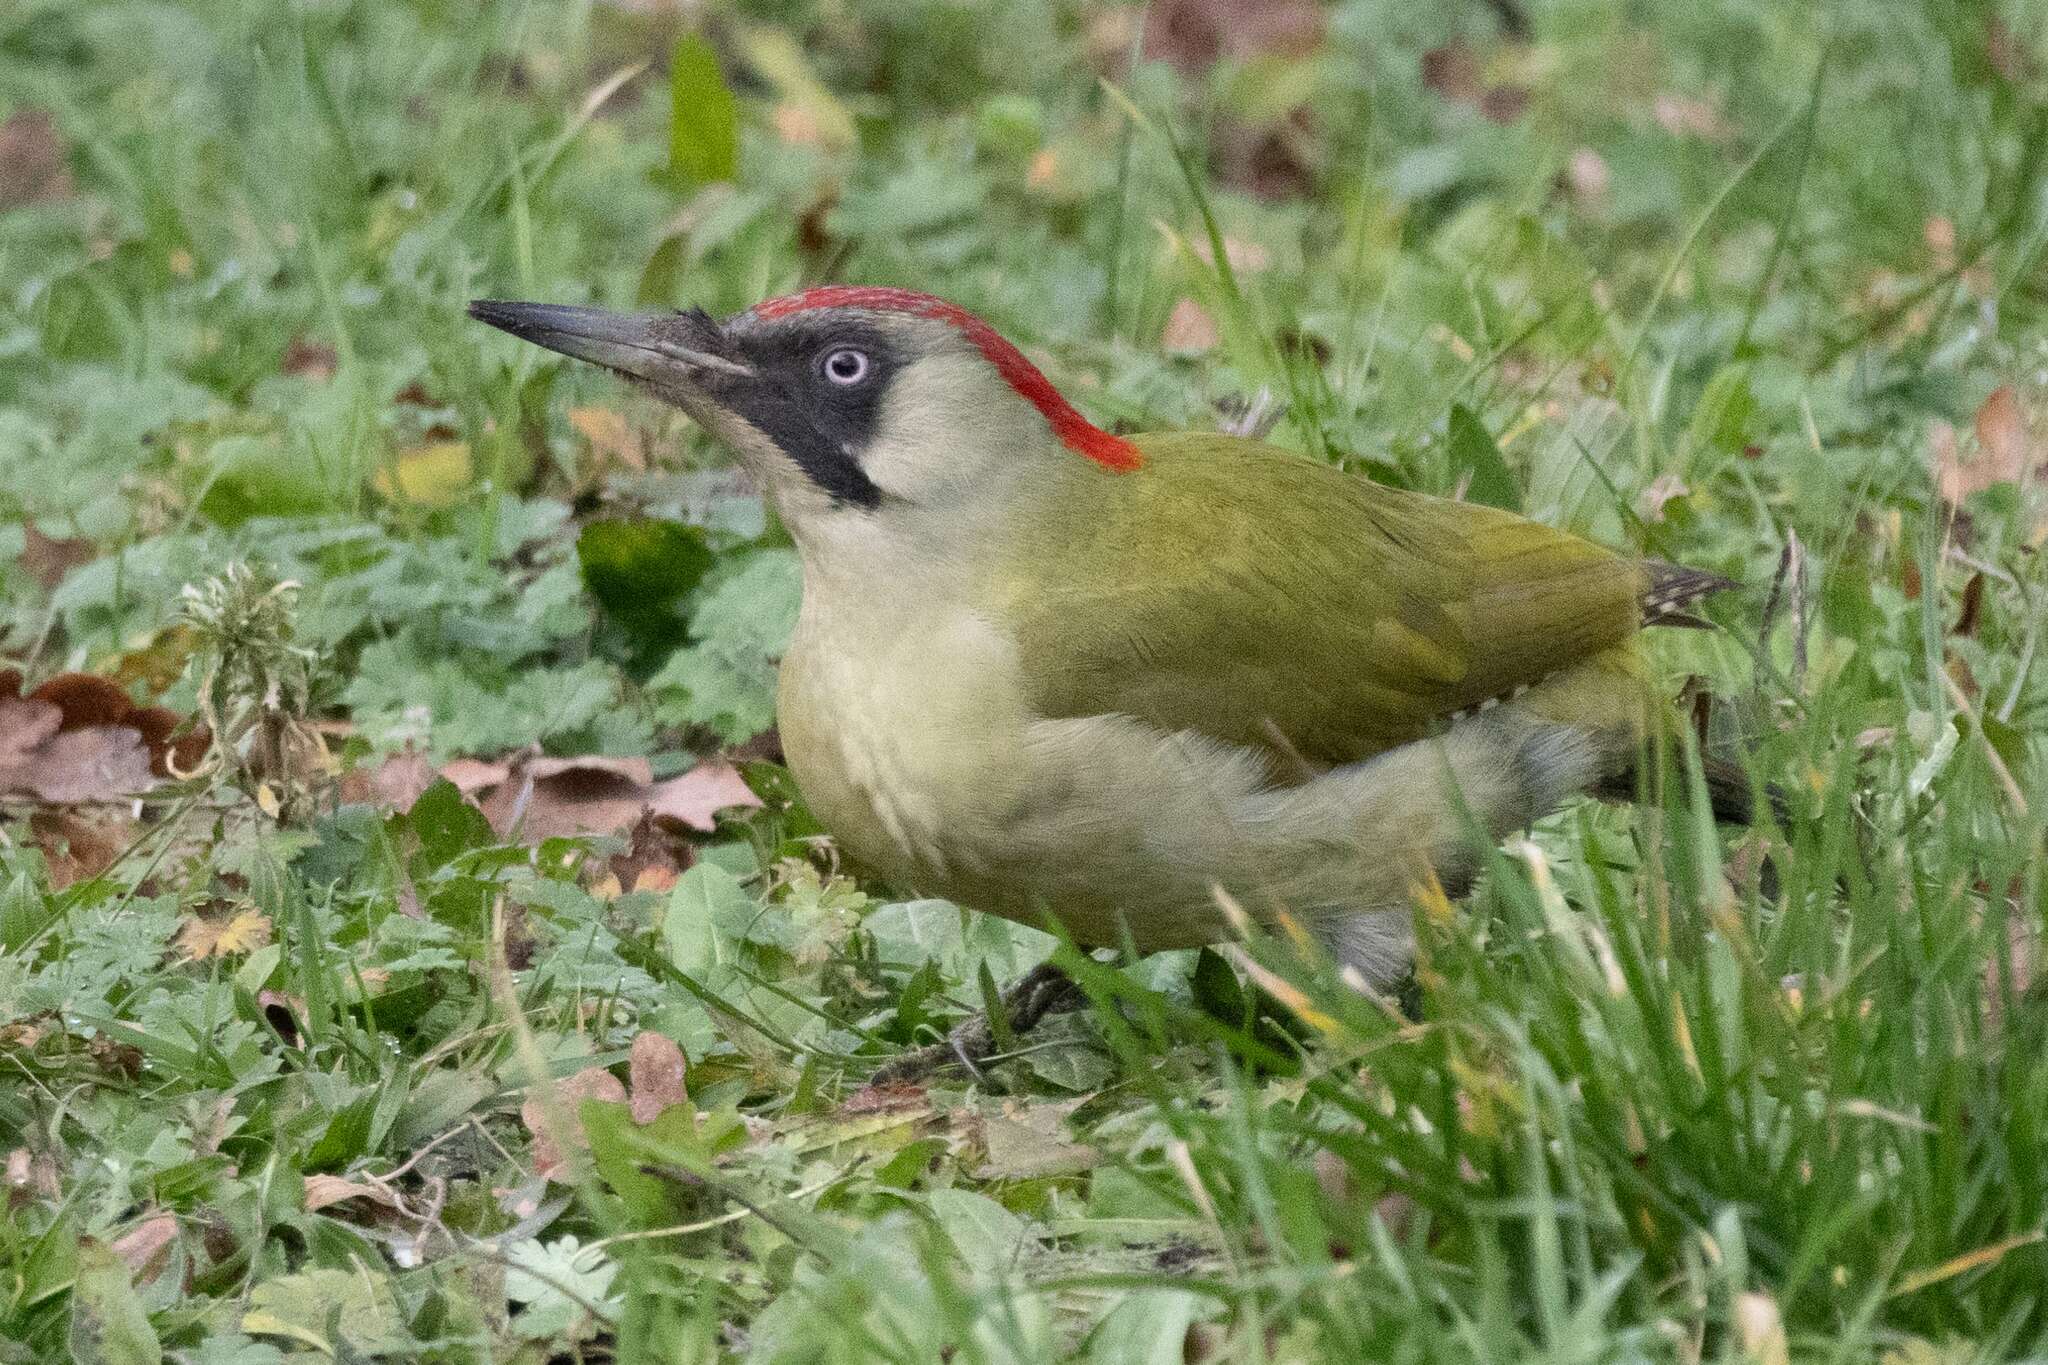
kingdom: Animalia
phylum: Chordata
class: Aves
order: Piciformes
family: Picidae
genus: Picus
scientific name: Picus viridis
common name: European green woodpecker
